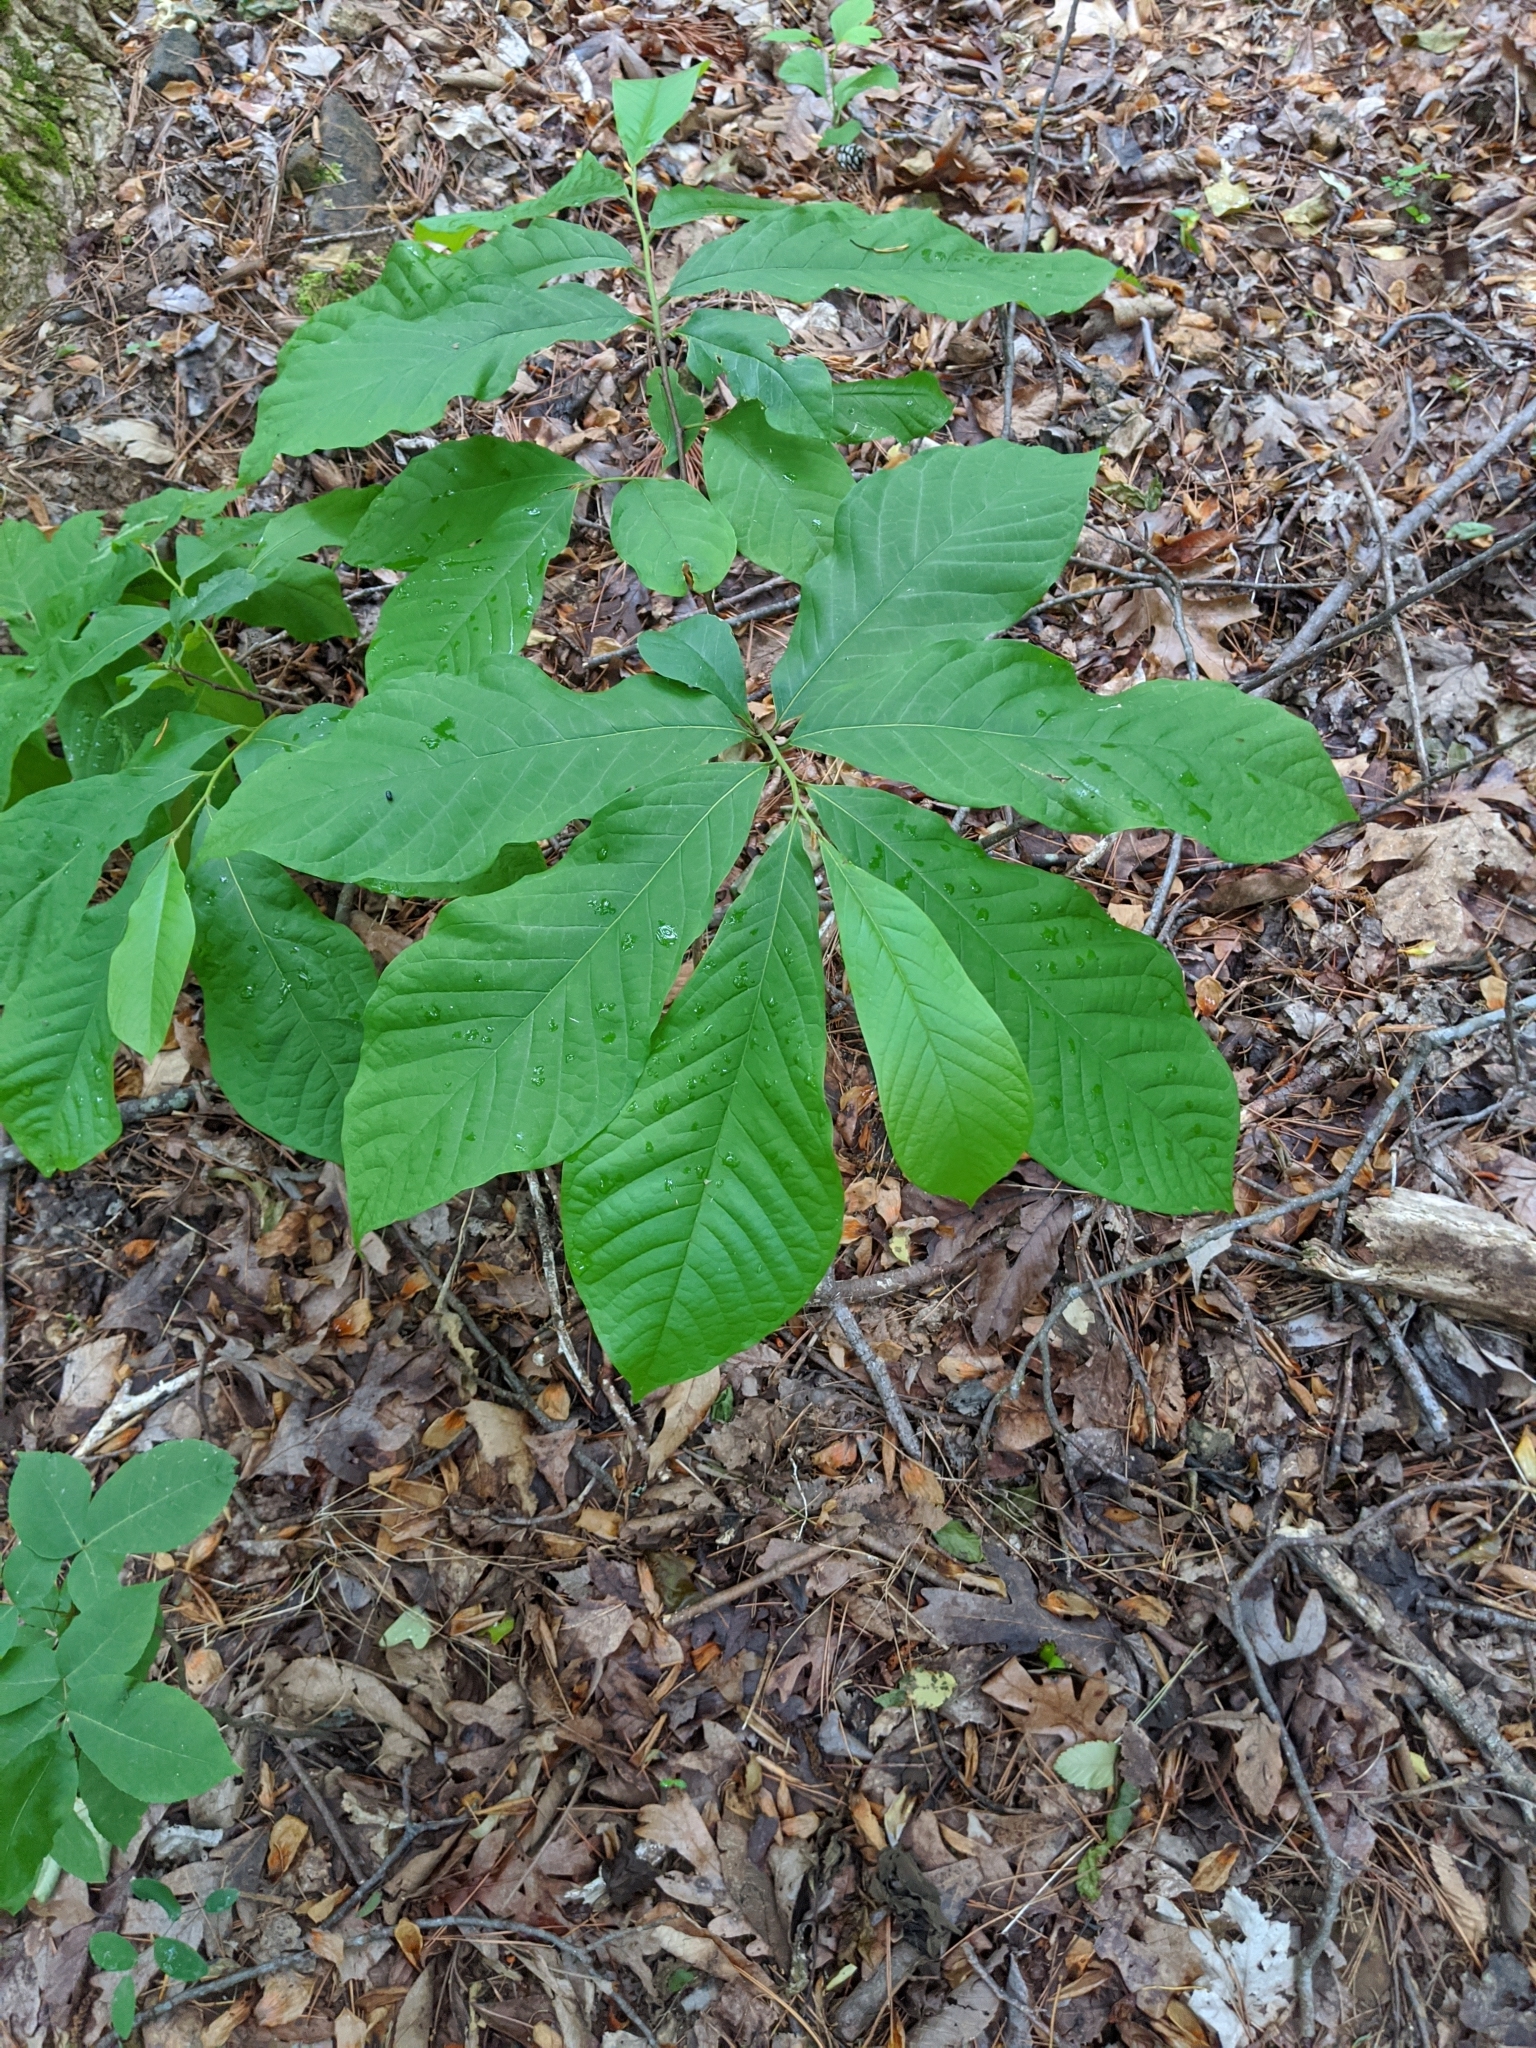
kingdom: Plantae
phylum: Tracheophyta
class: Magnoliopsida
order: Magnoliales
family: Annonaceae
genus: Asimina
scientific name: Asimina triloba
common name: Dog-banana
